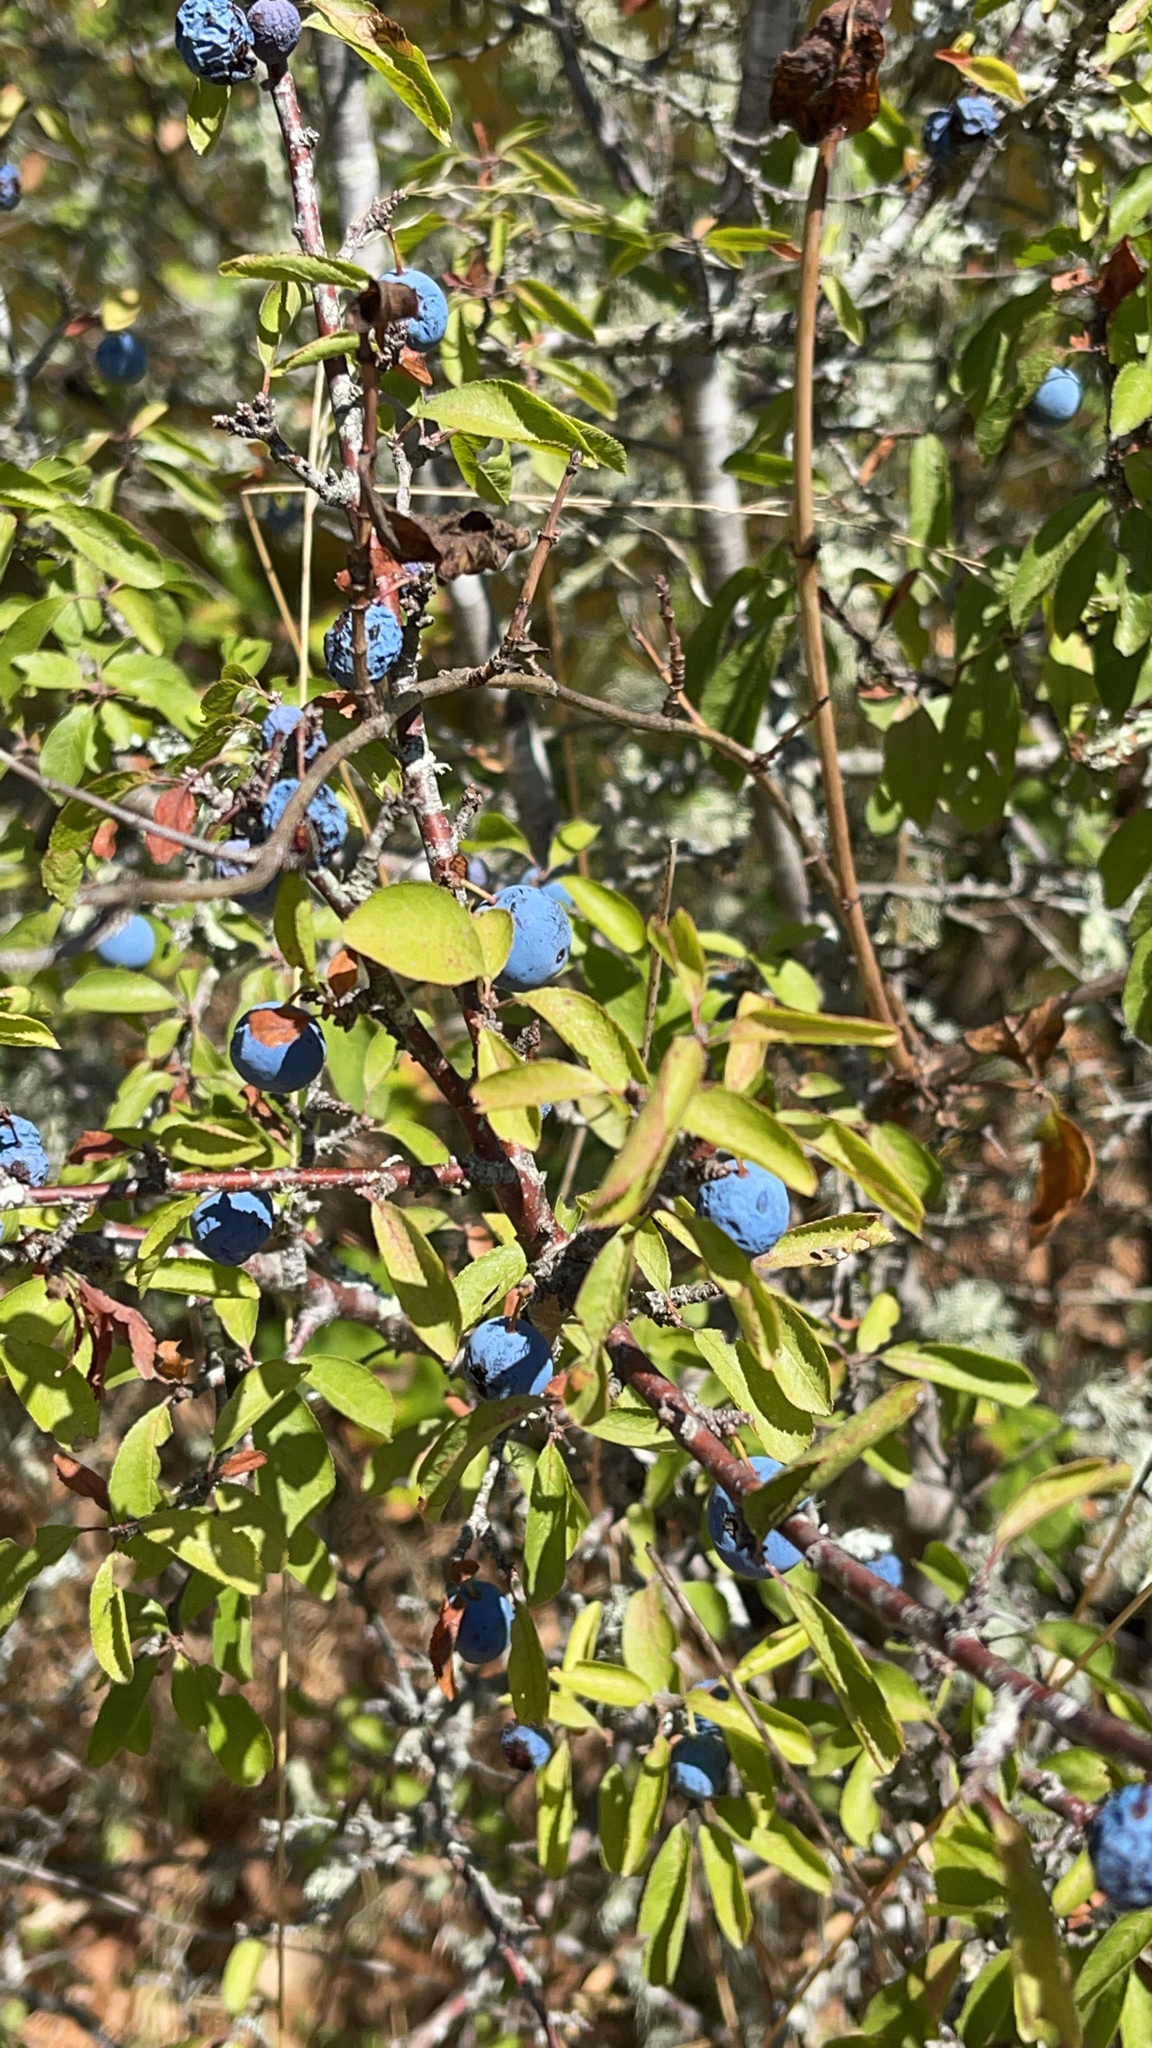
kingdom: Plantae
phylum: Tracheophyta
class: Magnoliopsida
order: Rosales
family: Rosaceae
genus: Prunus
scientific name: Prunus spinosa
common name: Blackthorn
